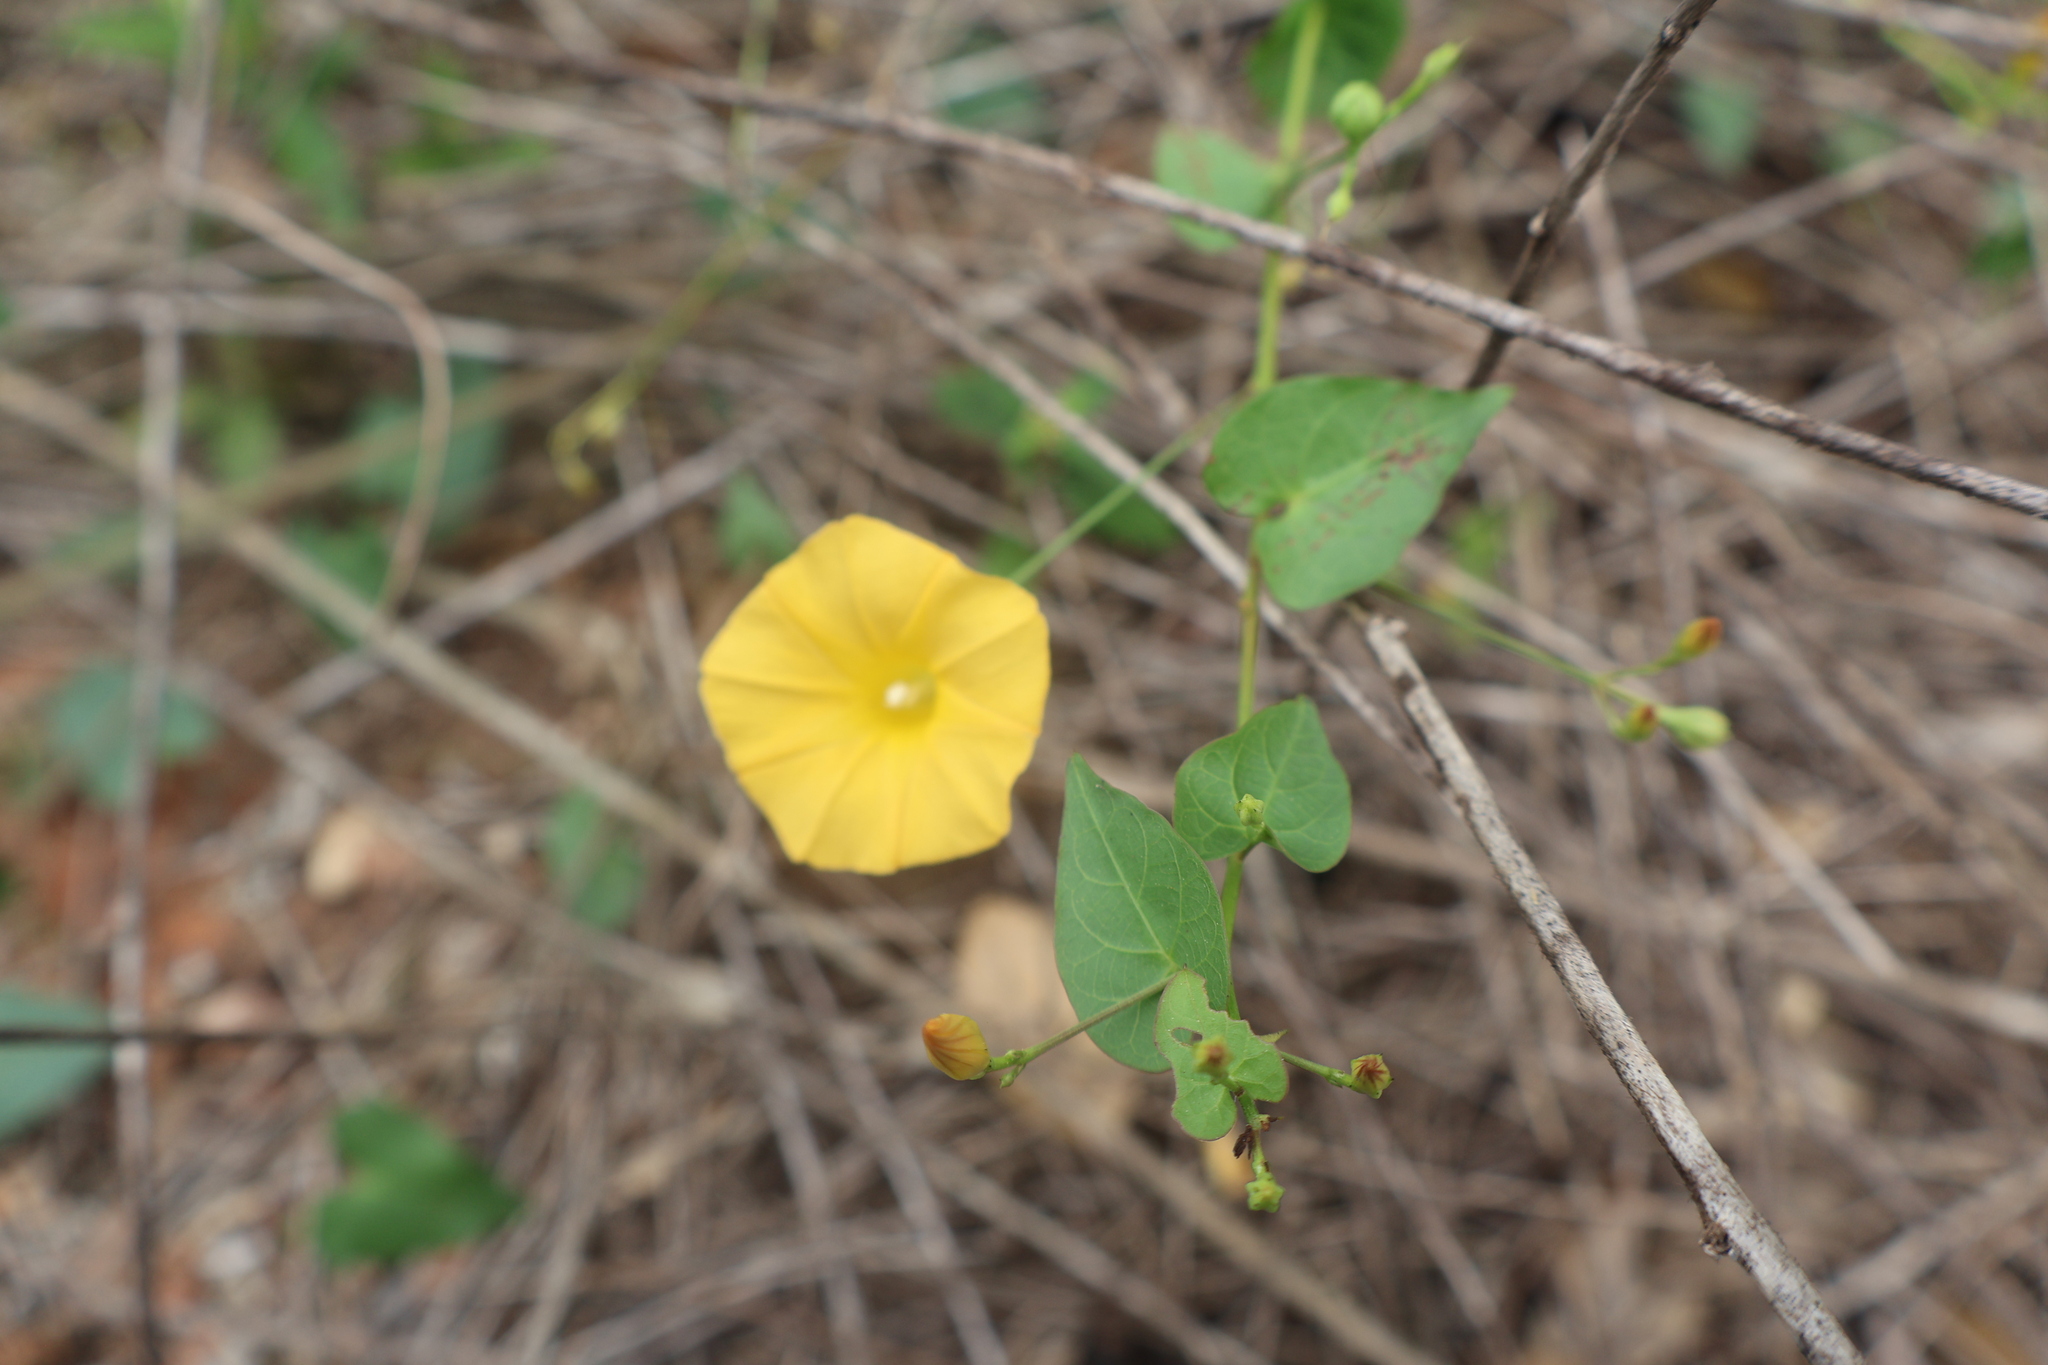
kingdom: Plantae
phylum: Tracheophyta
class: Magnoliopsida
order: Solanales
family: Convolvulaceae
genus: Ipomoea
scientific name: Ipomoea microsepala
